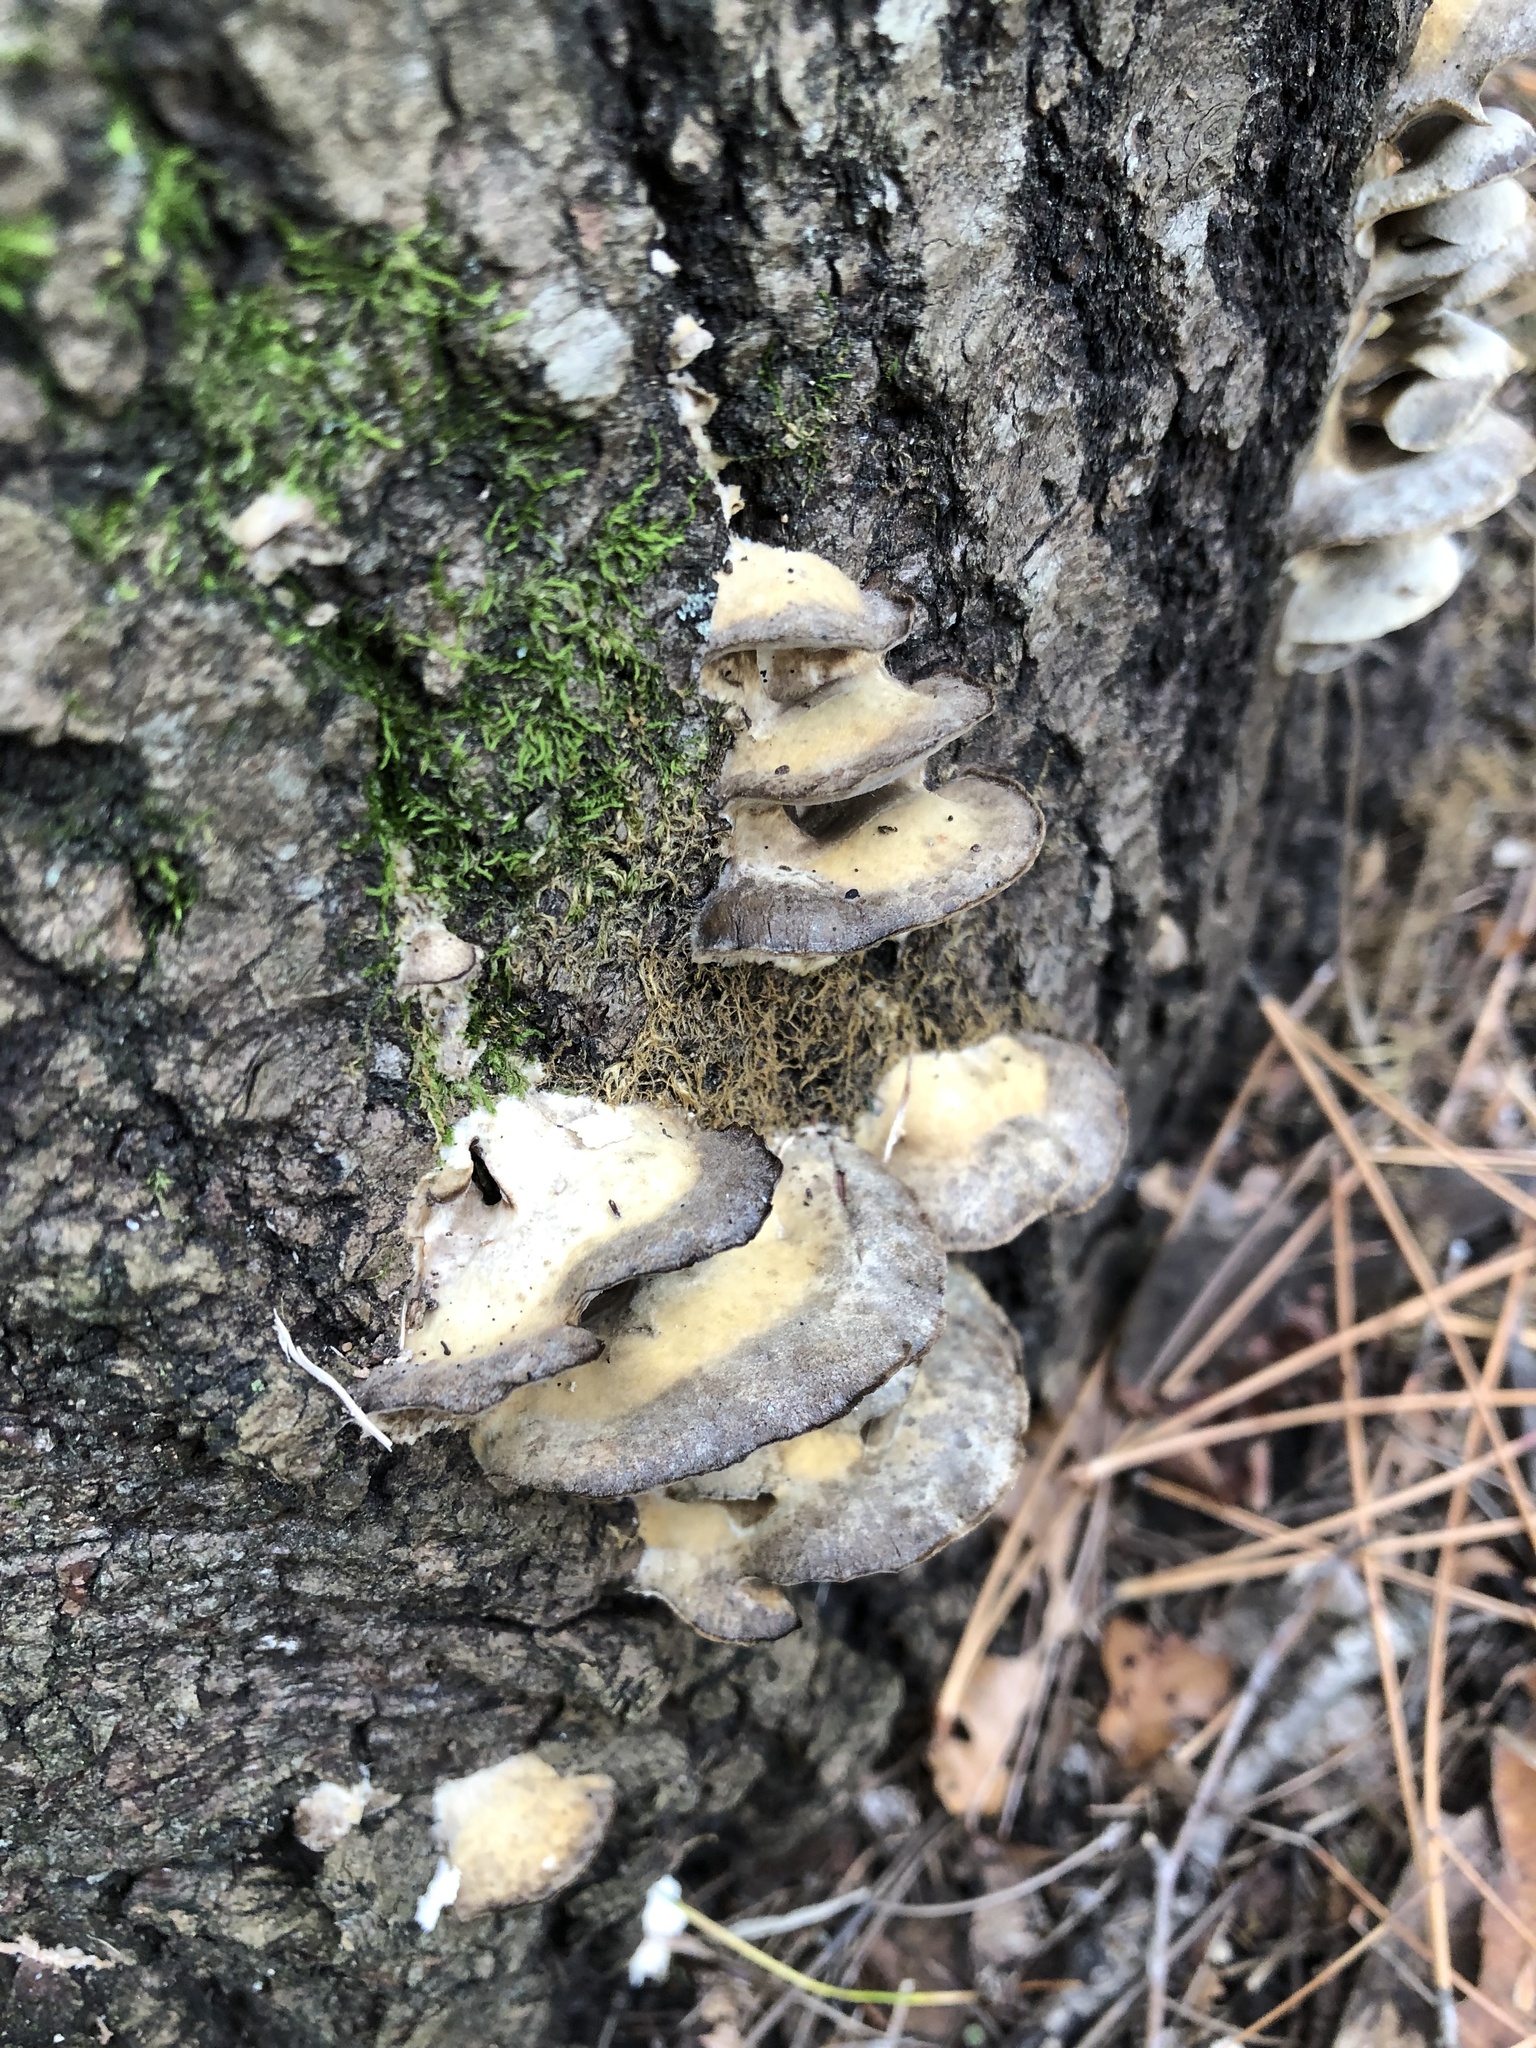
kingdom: Fungi
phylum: Basidiomycota
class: Agaricomycetes
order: Polyporales
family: Phanerochaetaceae
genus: Bjerkandera
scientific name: Bjerkandera adusta
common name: Smoky bracket
